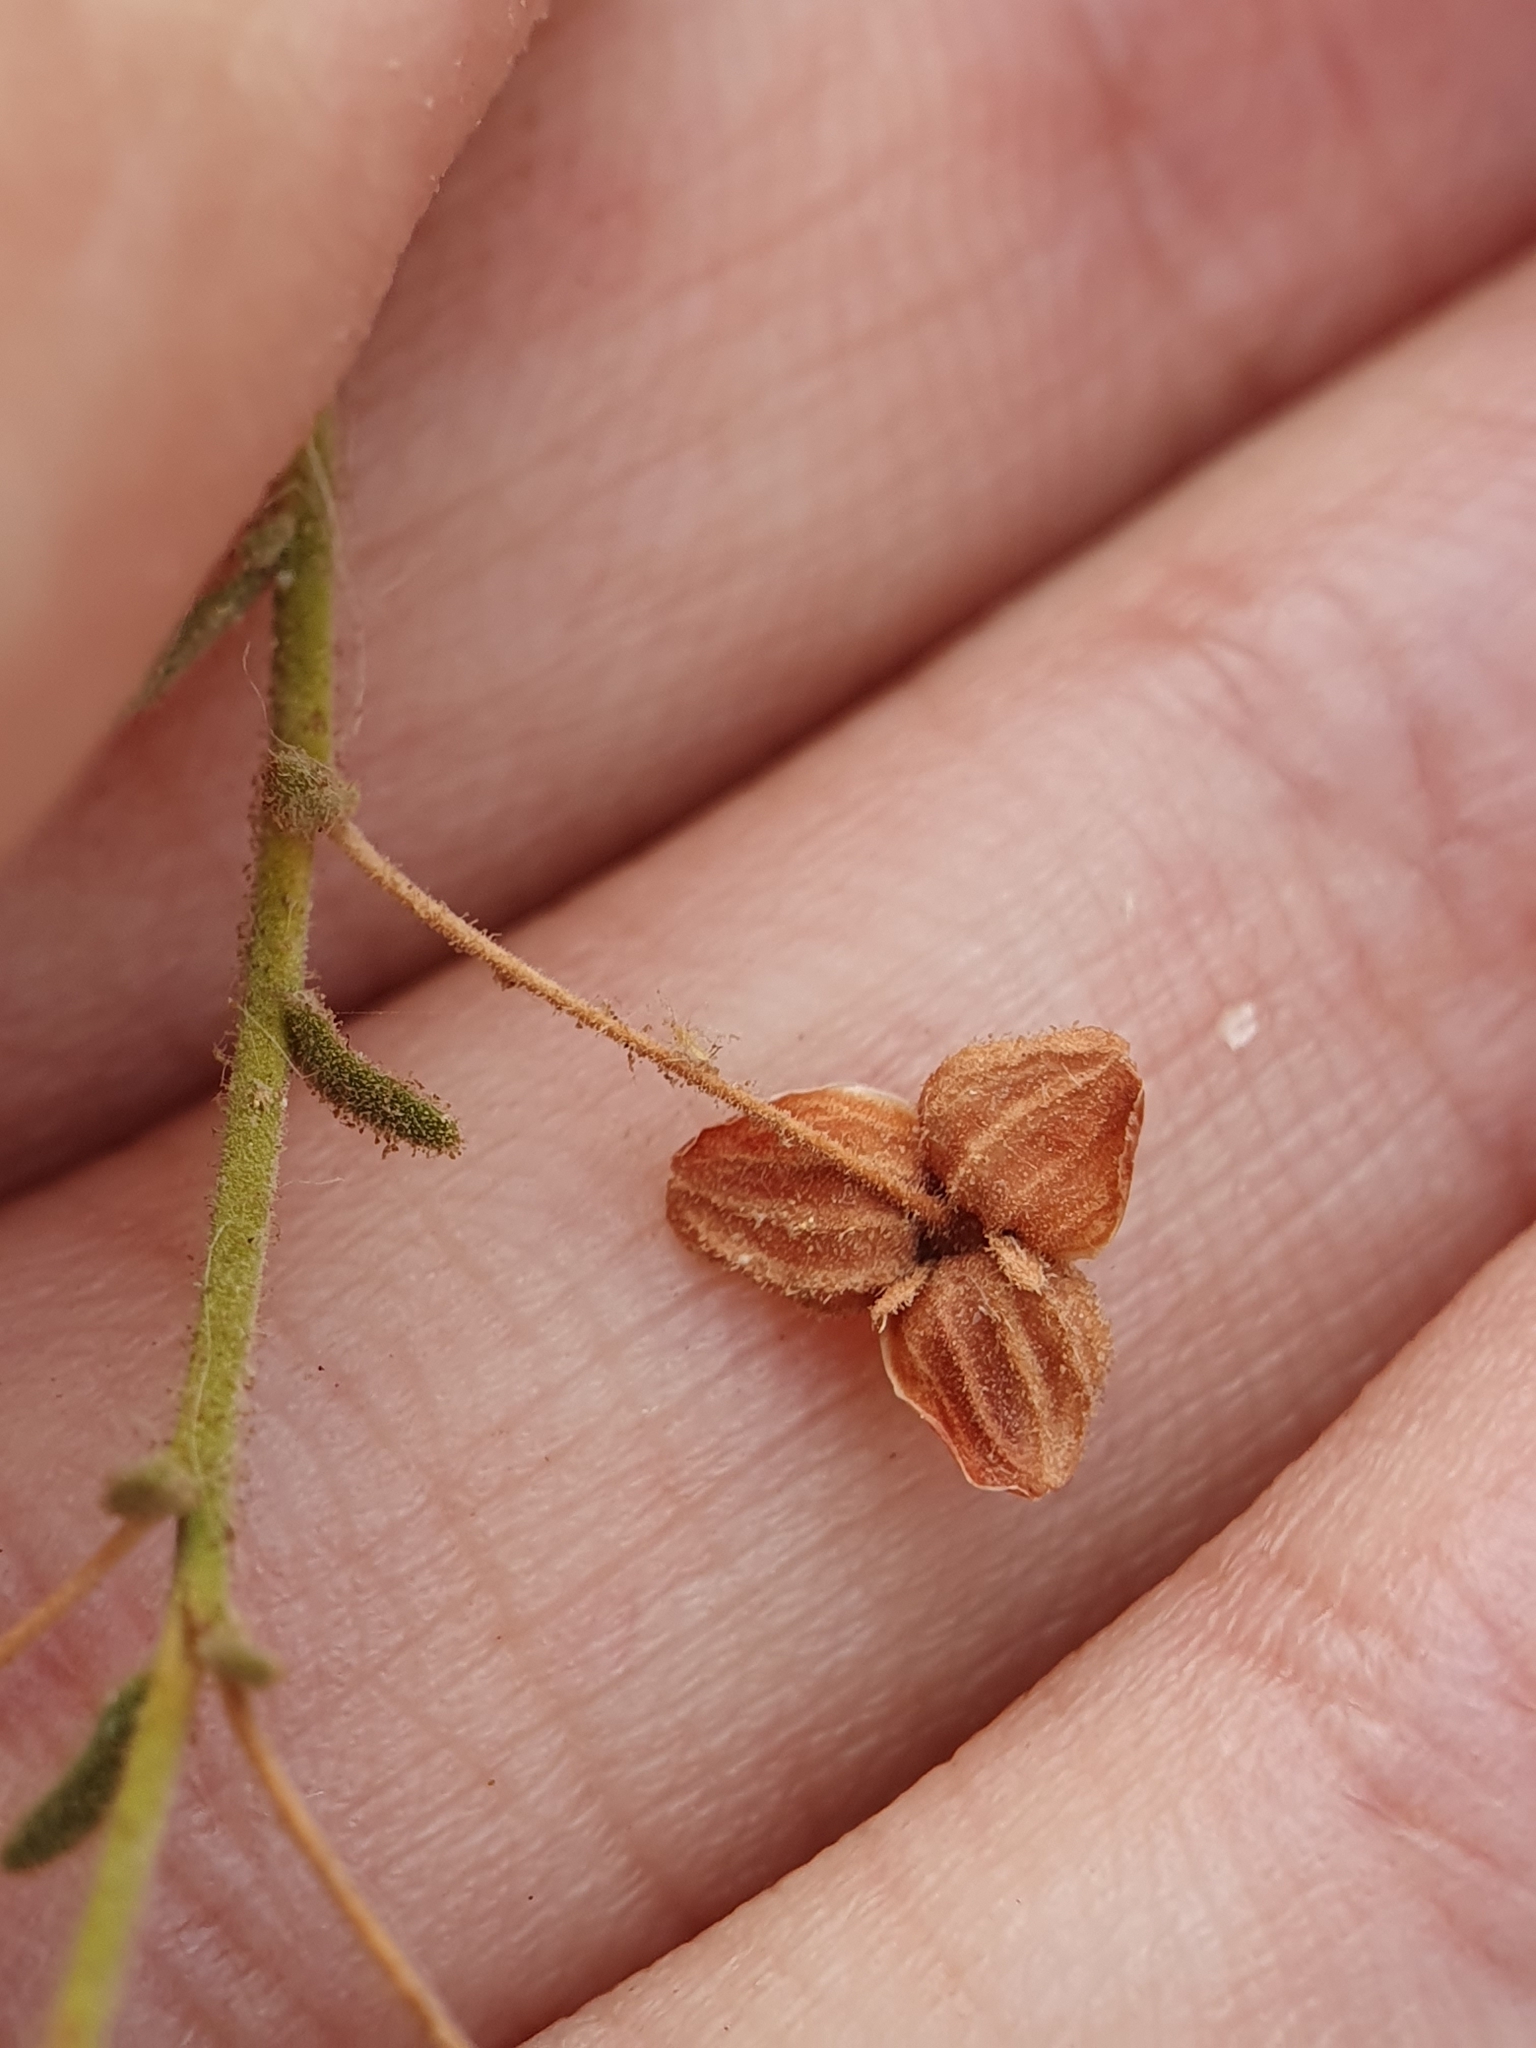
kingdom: Plantae
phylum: Tracheophyta
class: Magnoliopsida
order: Malvales
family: Cistaceae
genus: Fumana
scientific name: Fumana laevis
